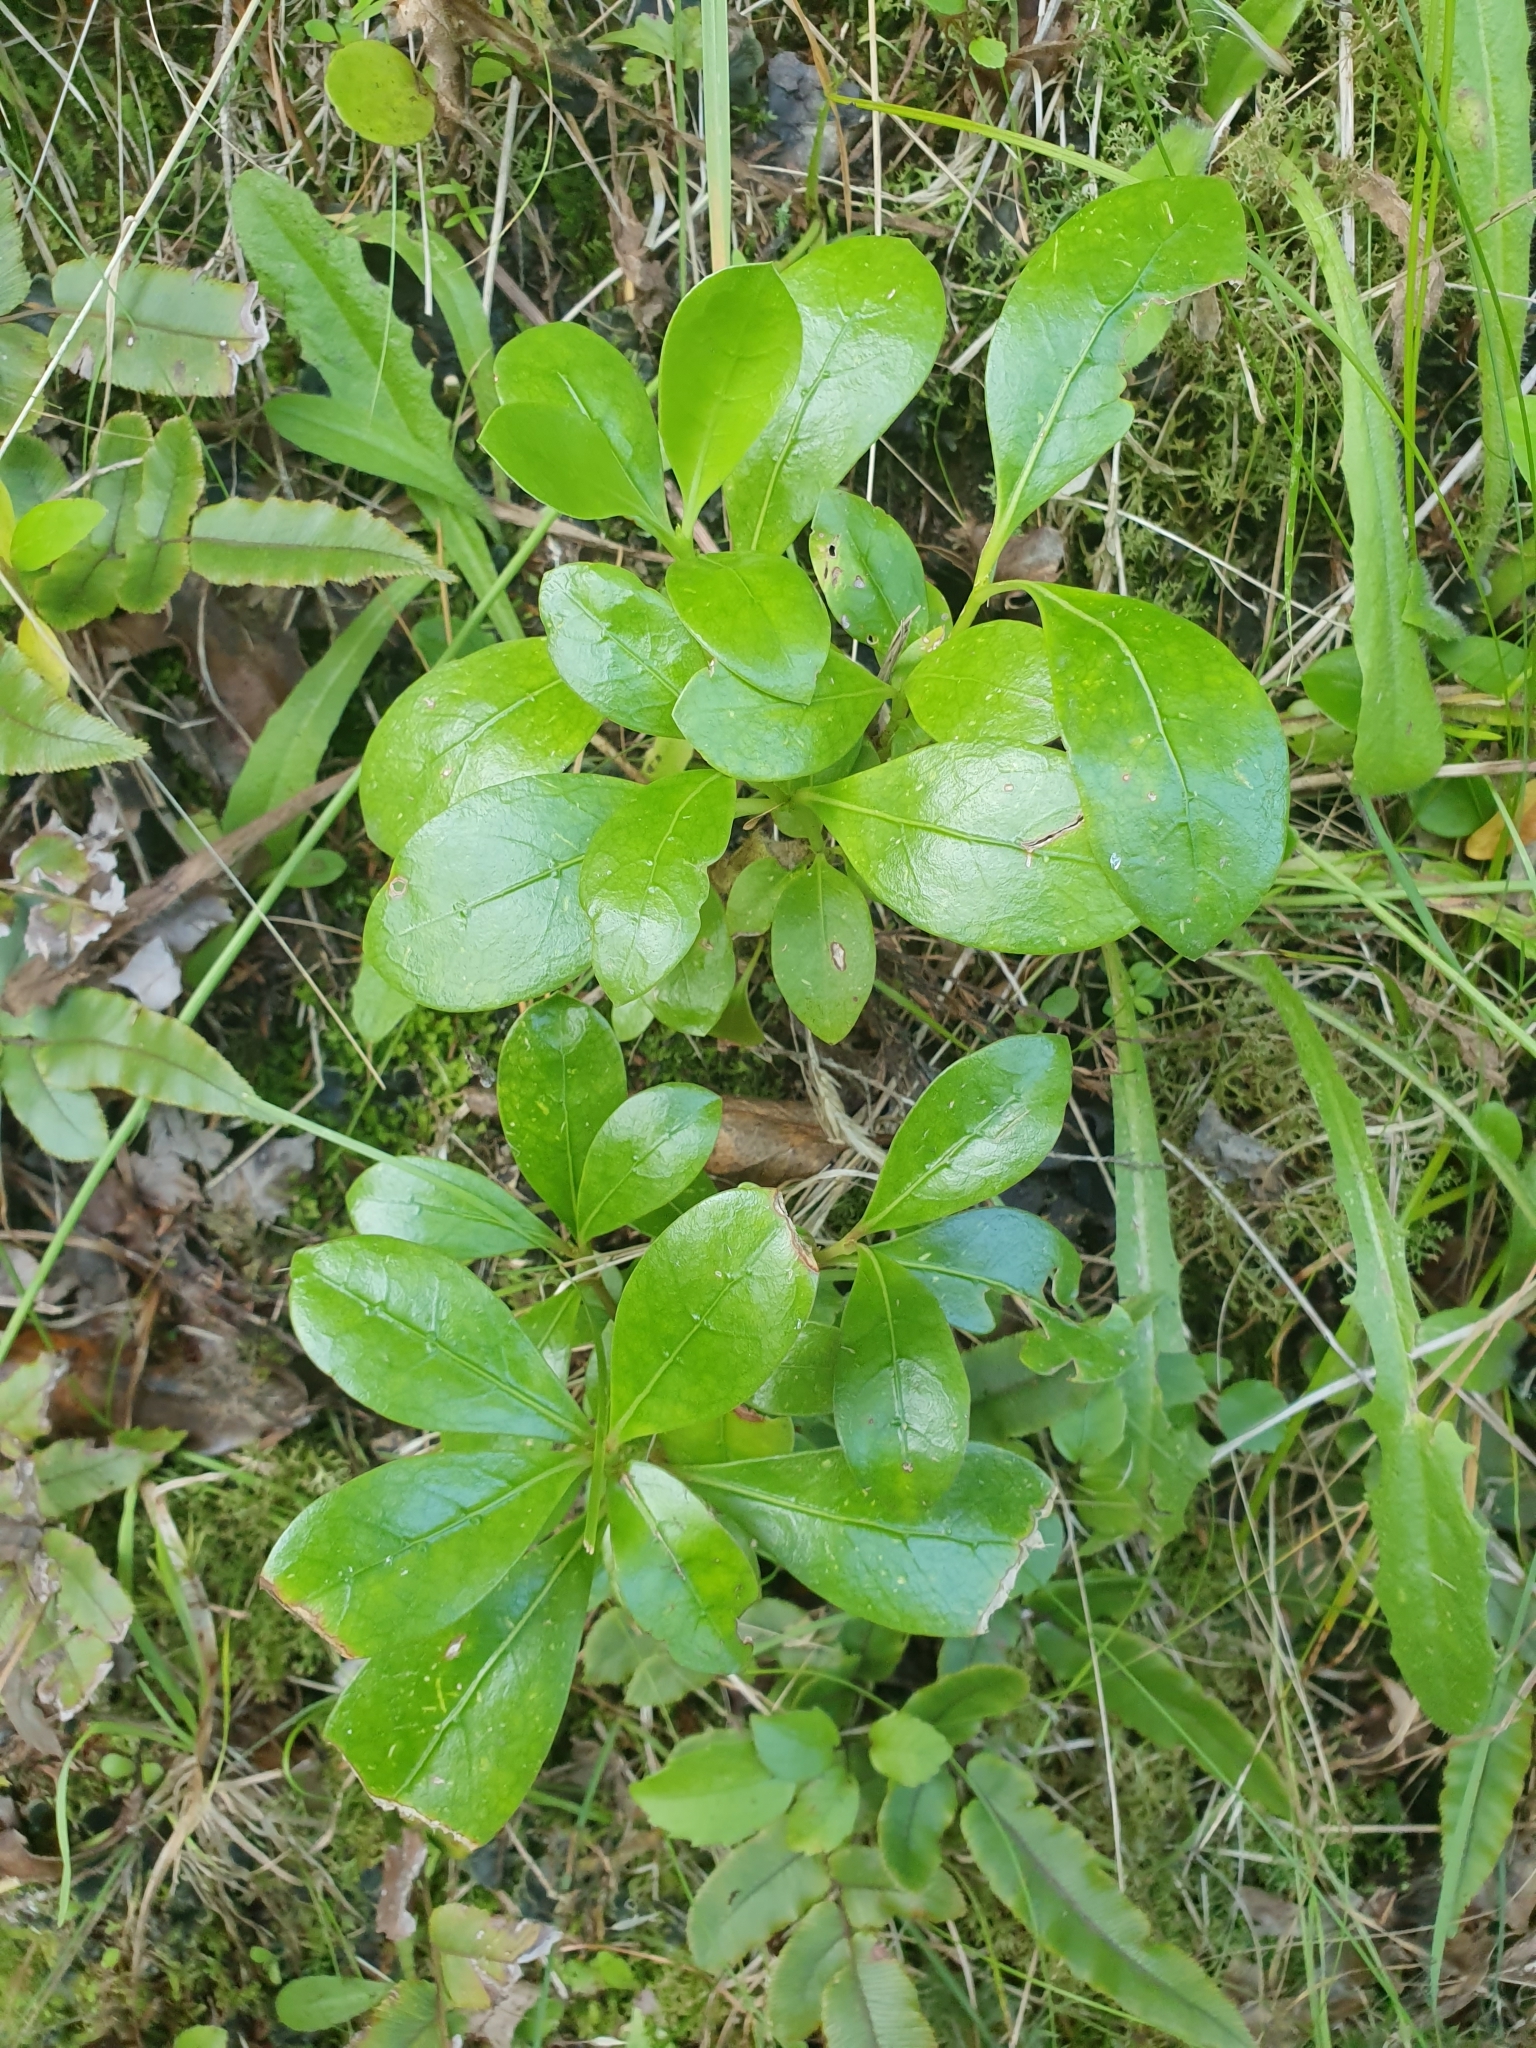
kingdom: Plantae
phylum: Tracheophyta
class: Magnoliopsida
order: Gentianales
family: Rubiaceae
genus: Coprosma
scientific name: Coprosma lucida
